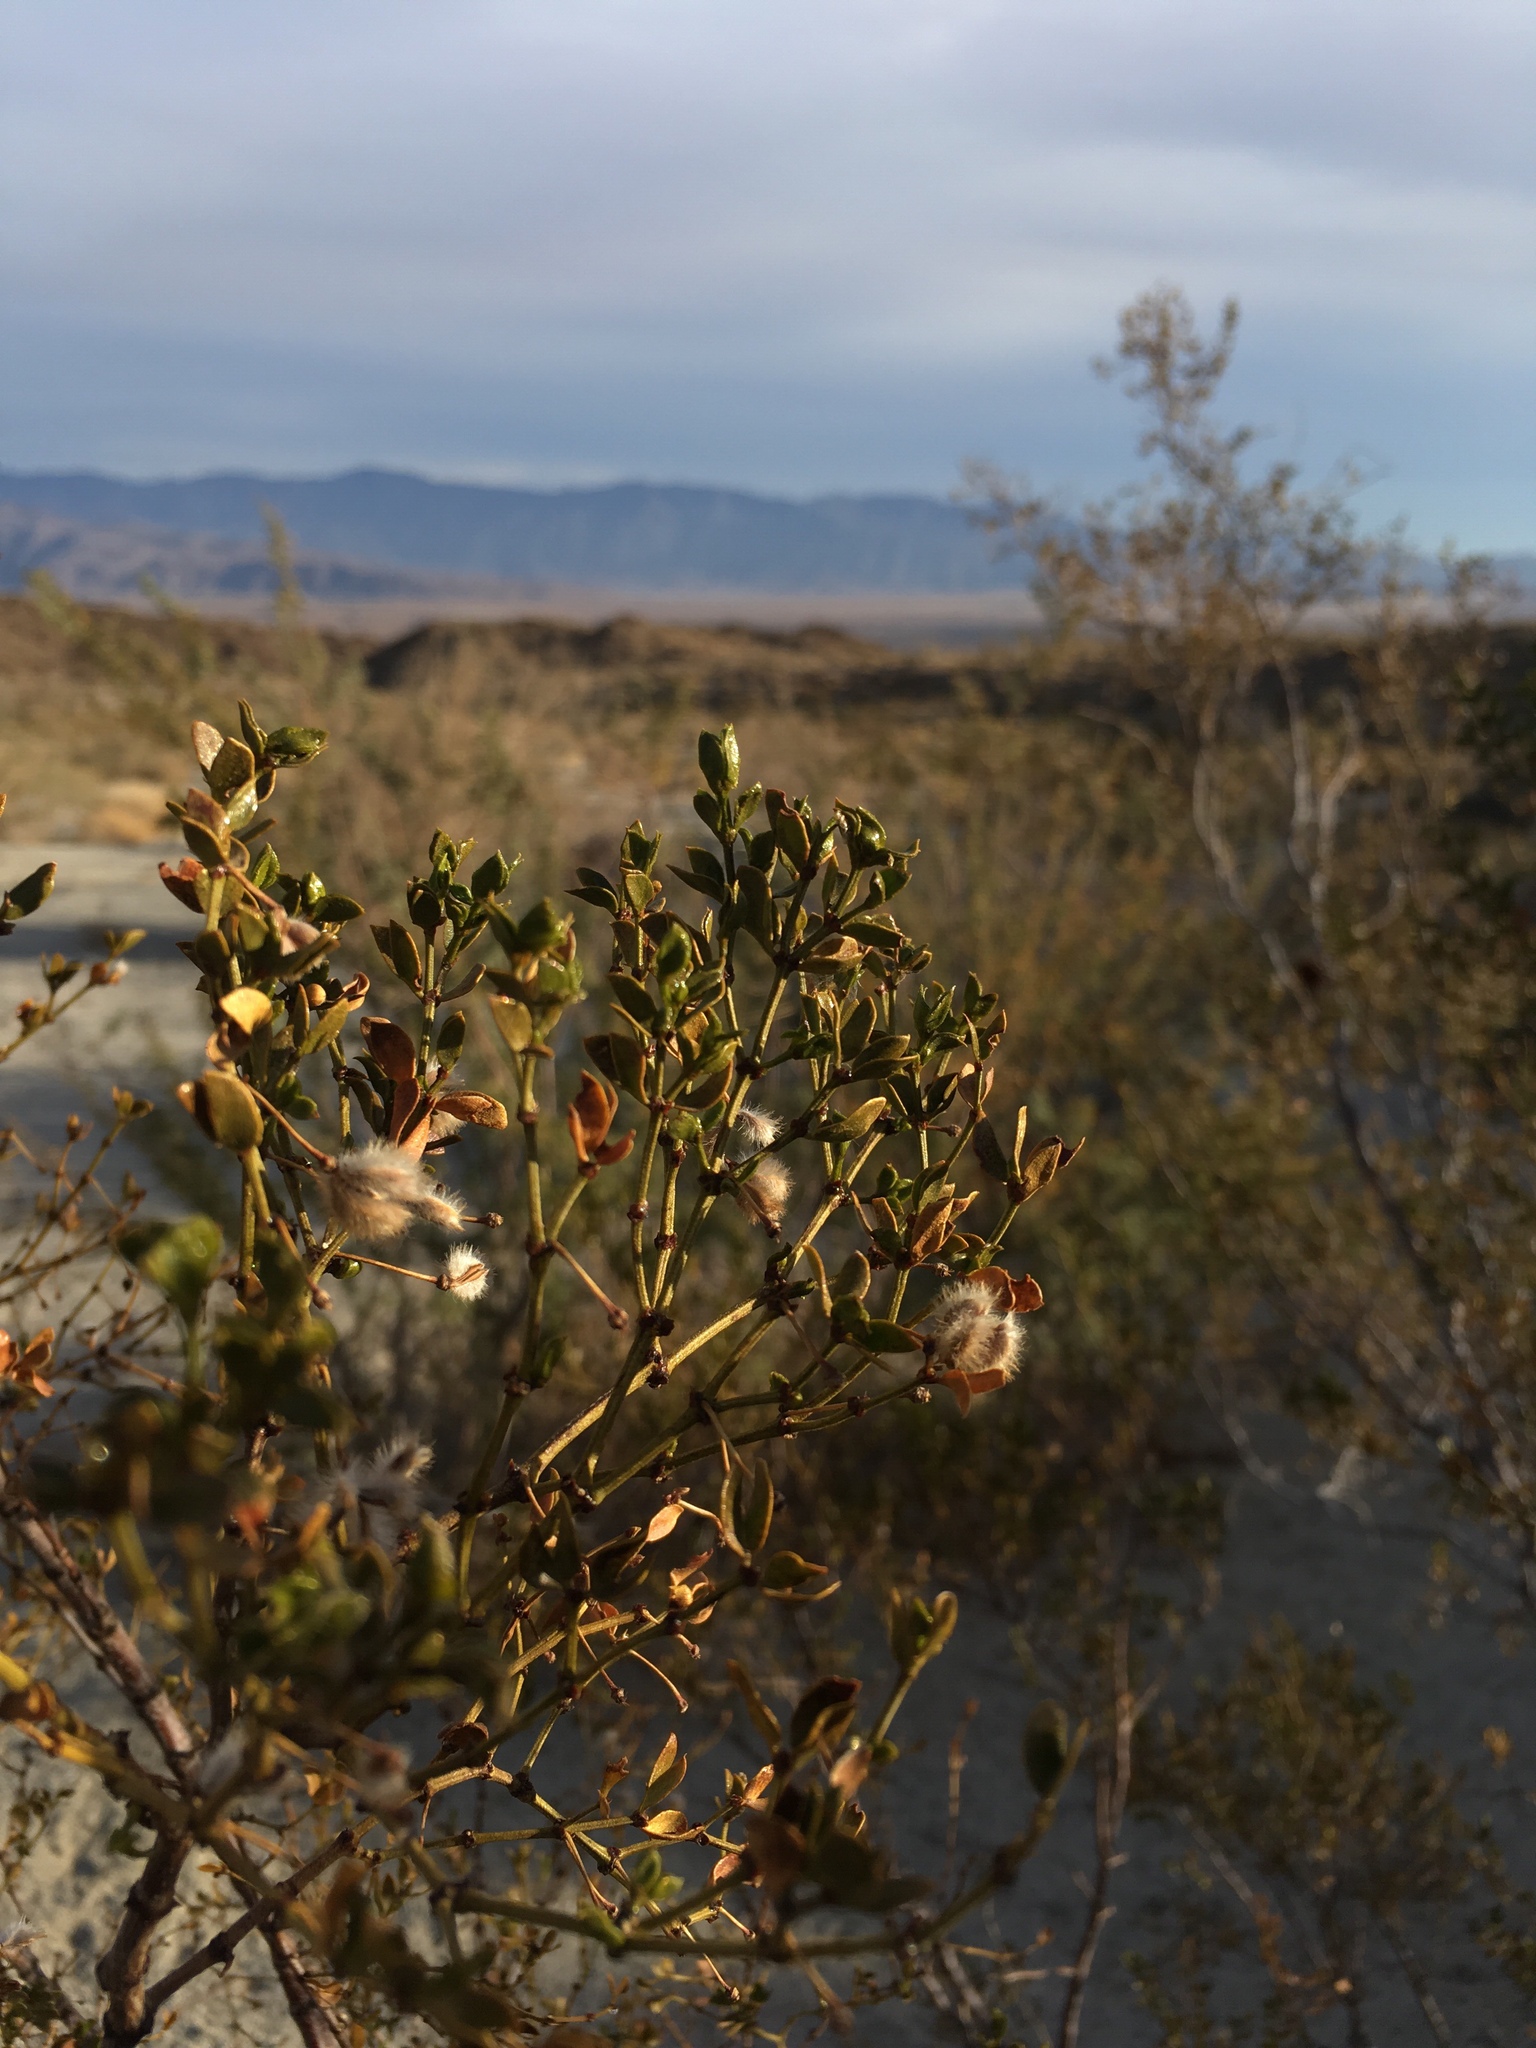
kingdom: Animalia
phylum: Arthropoda
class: Insecta
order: Diptera
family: Cecidomyiidae
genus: Asphondylia
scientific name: Asphondylia auripila
